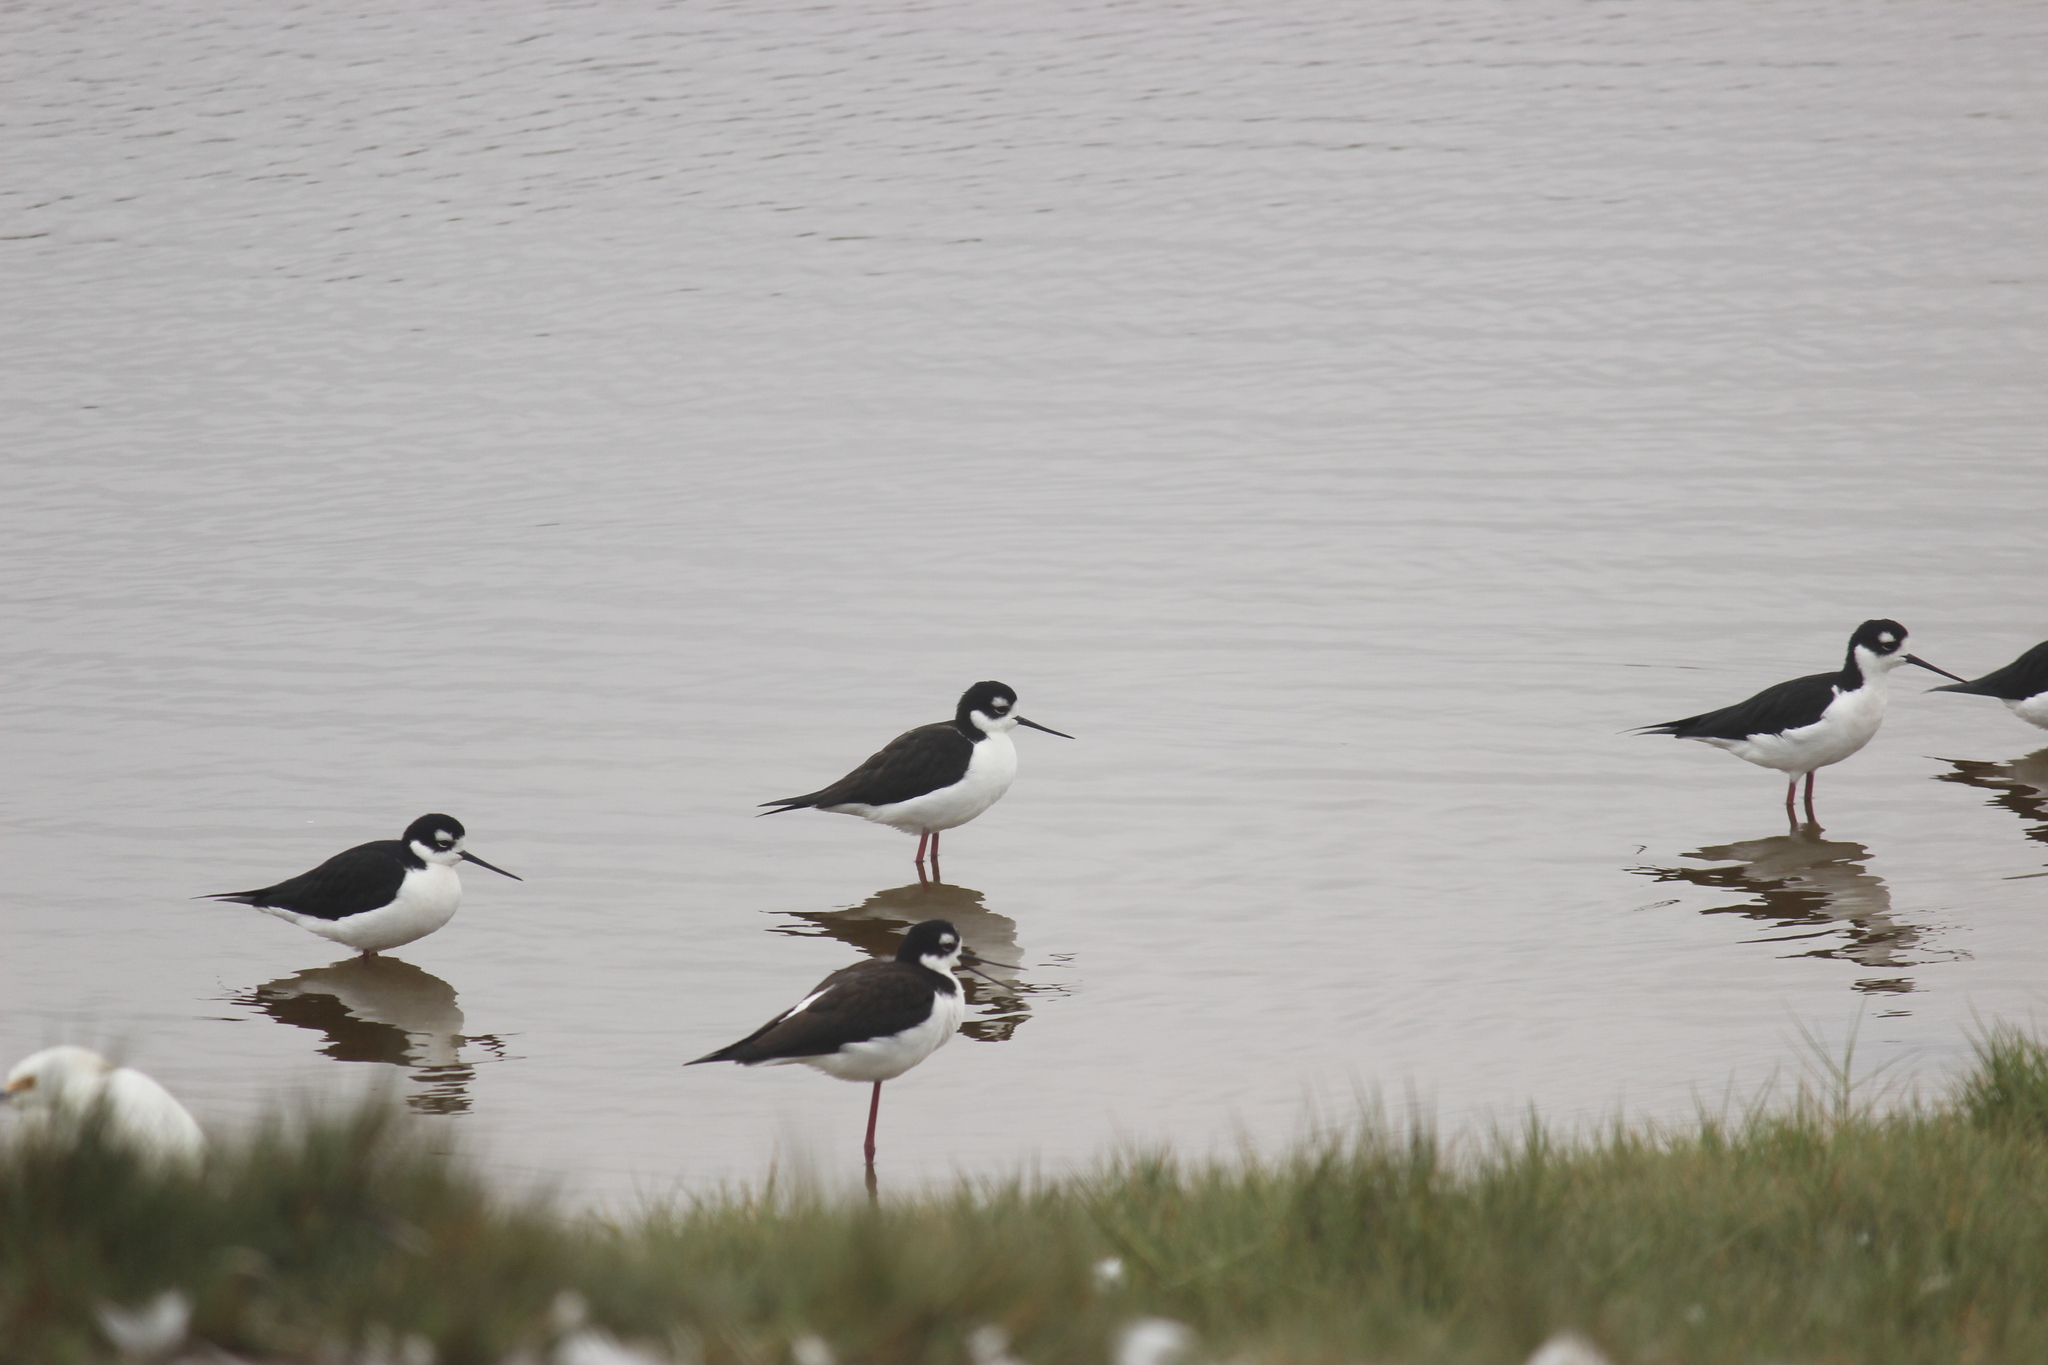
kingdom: Animalia
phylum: Chordata
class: Aves
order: Charadriiformes
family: Recurvirostridae
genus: Himantopus
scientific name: Himantopus mexicanus
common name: Black-necked stilt
